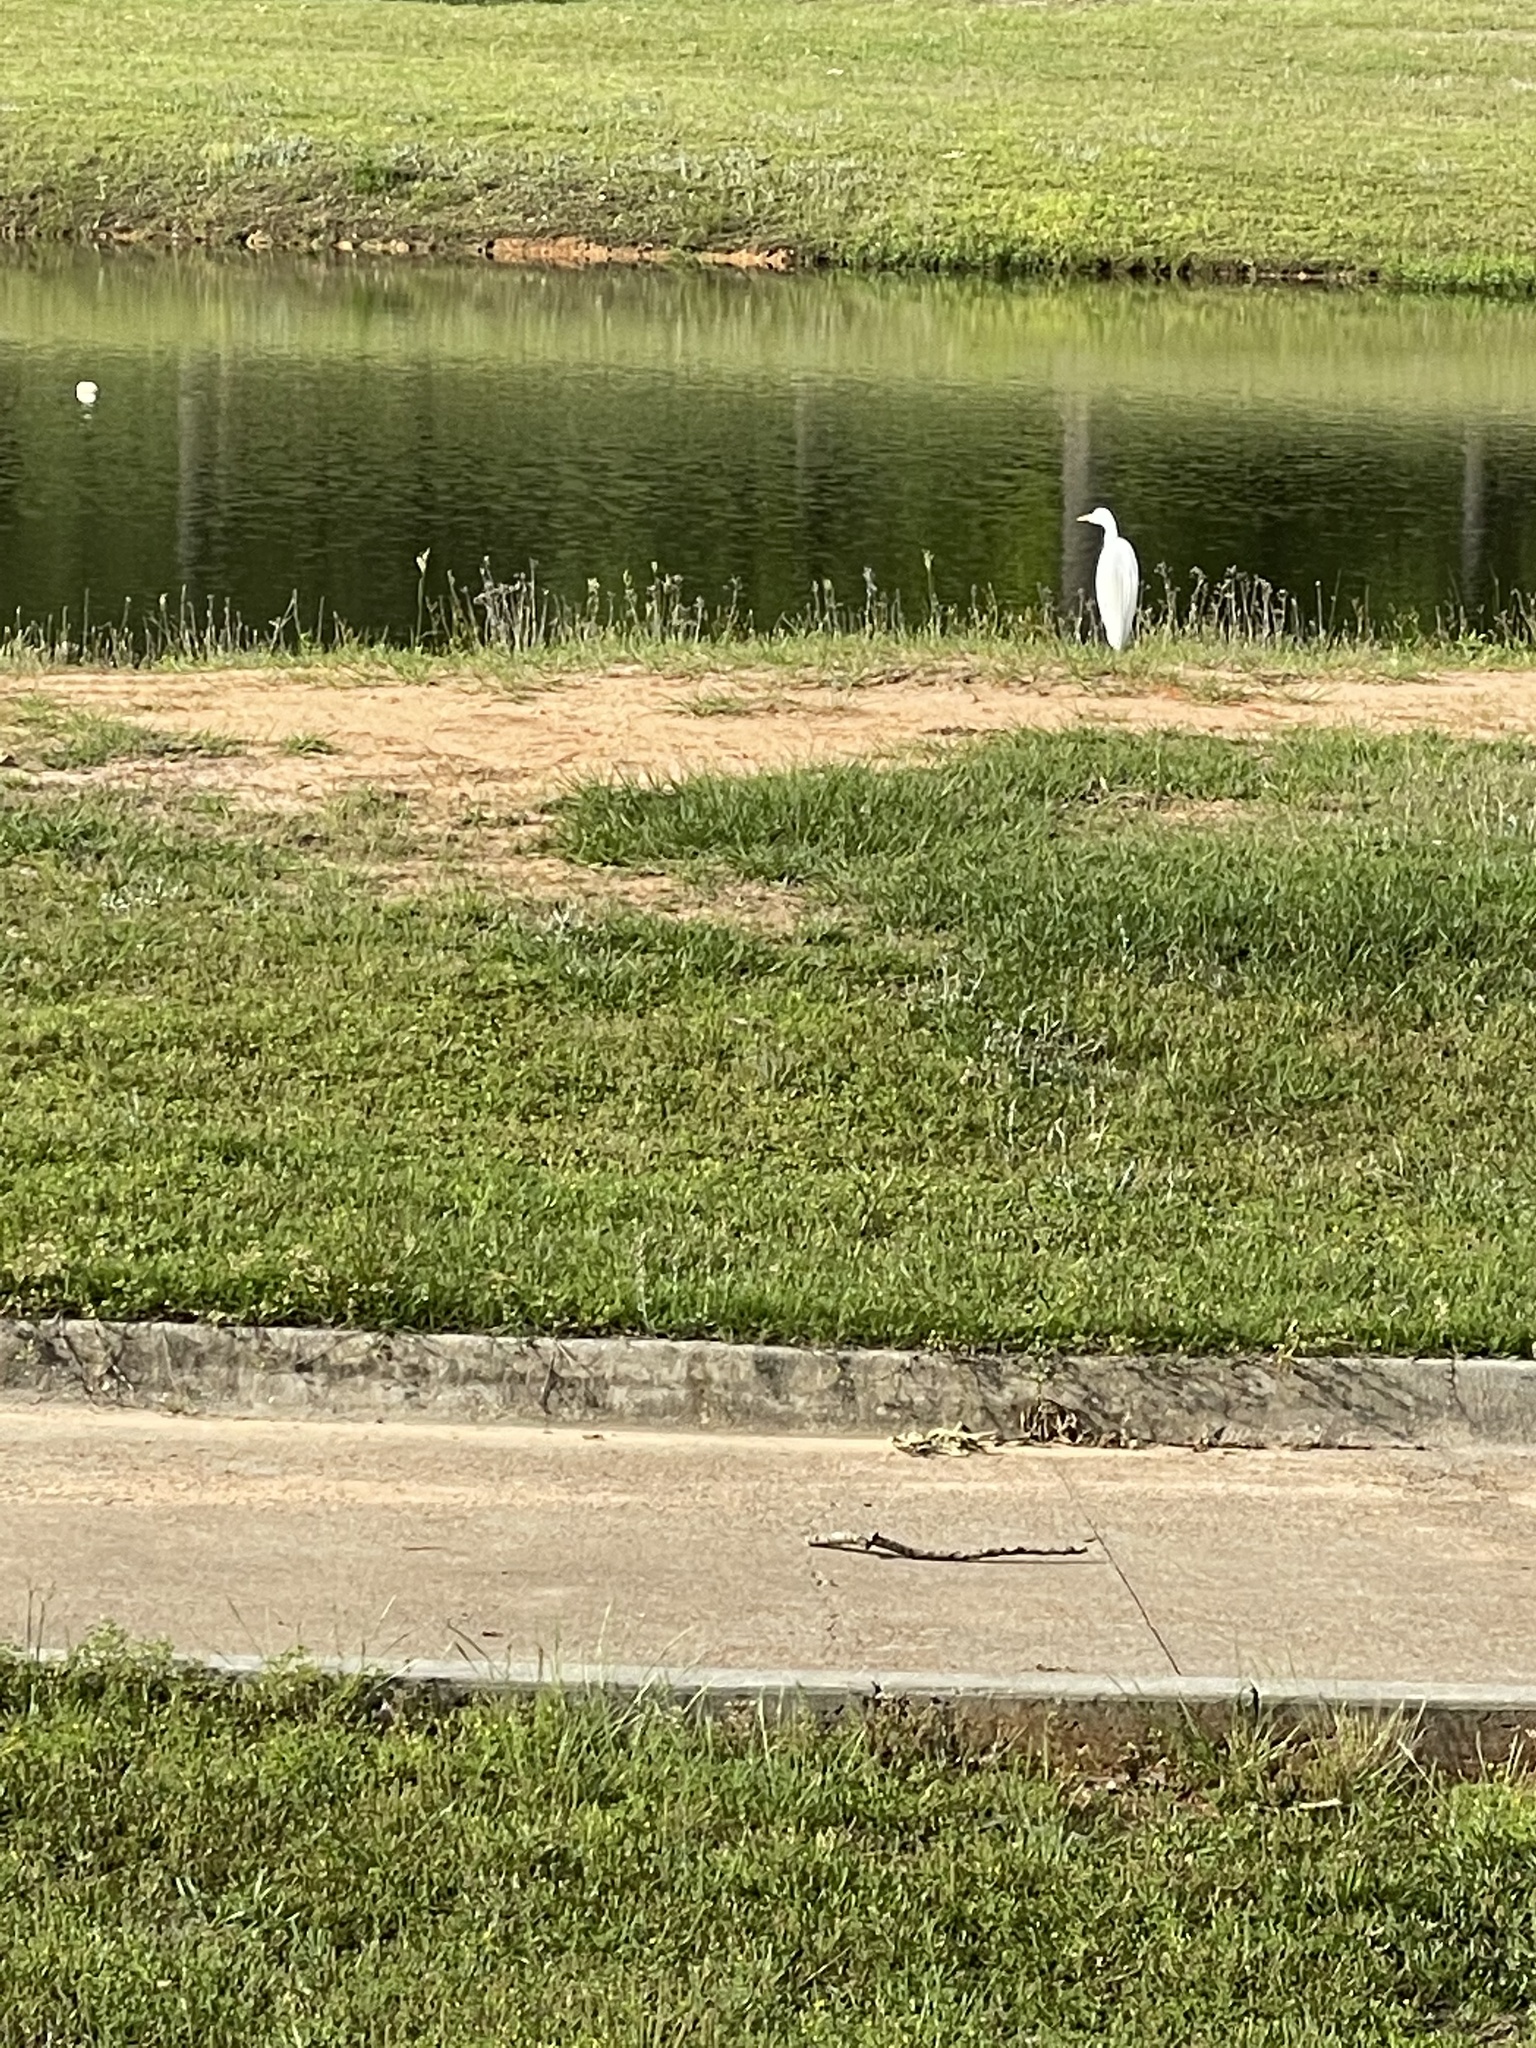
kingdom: Animalia
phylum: Chordata
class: Aves
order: Pelecaniformes
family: Ardeidae
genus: Ardea
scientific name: Ardea alba
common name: Great egret
